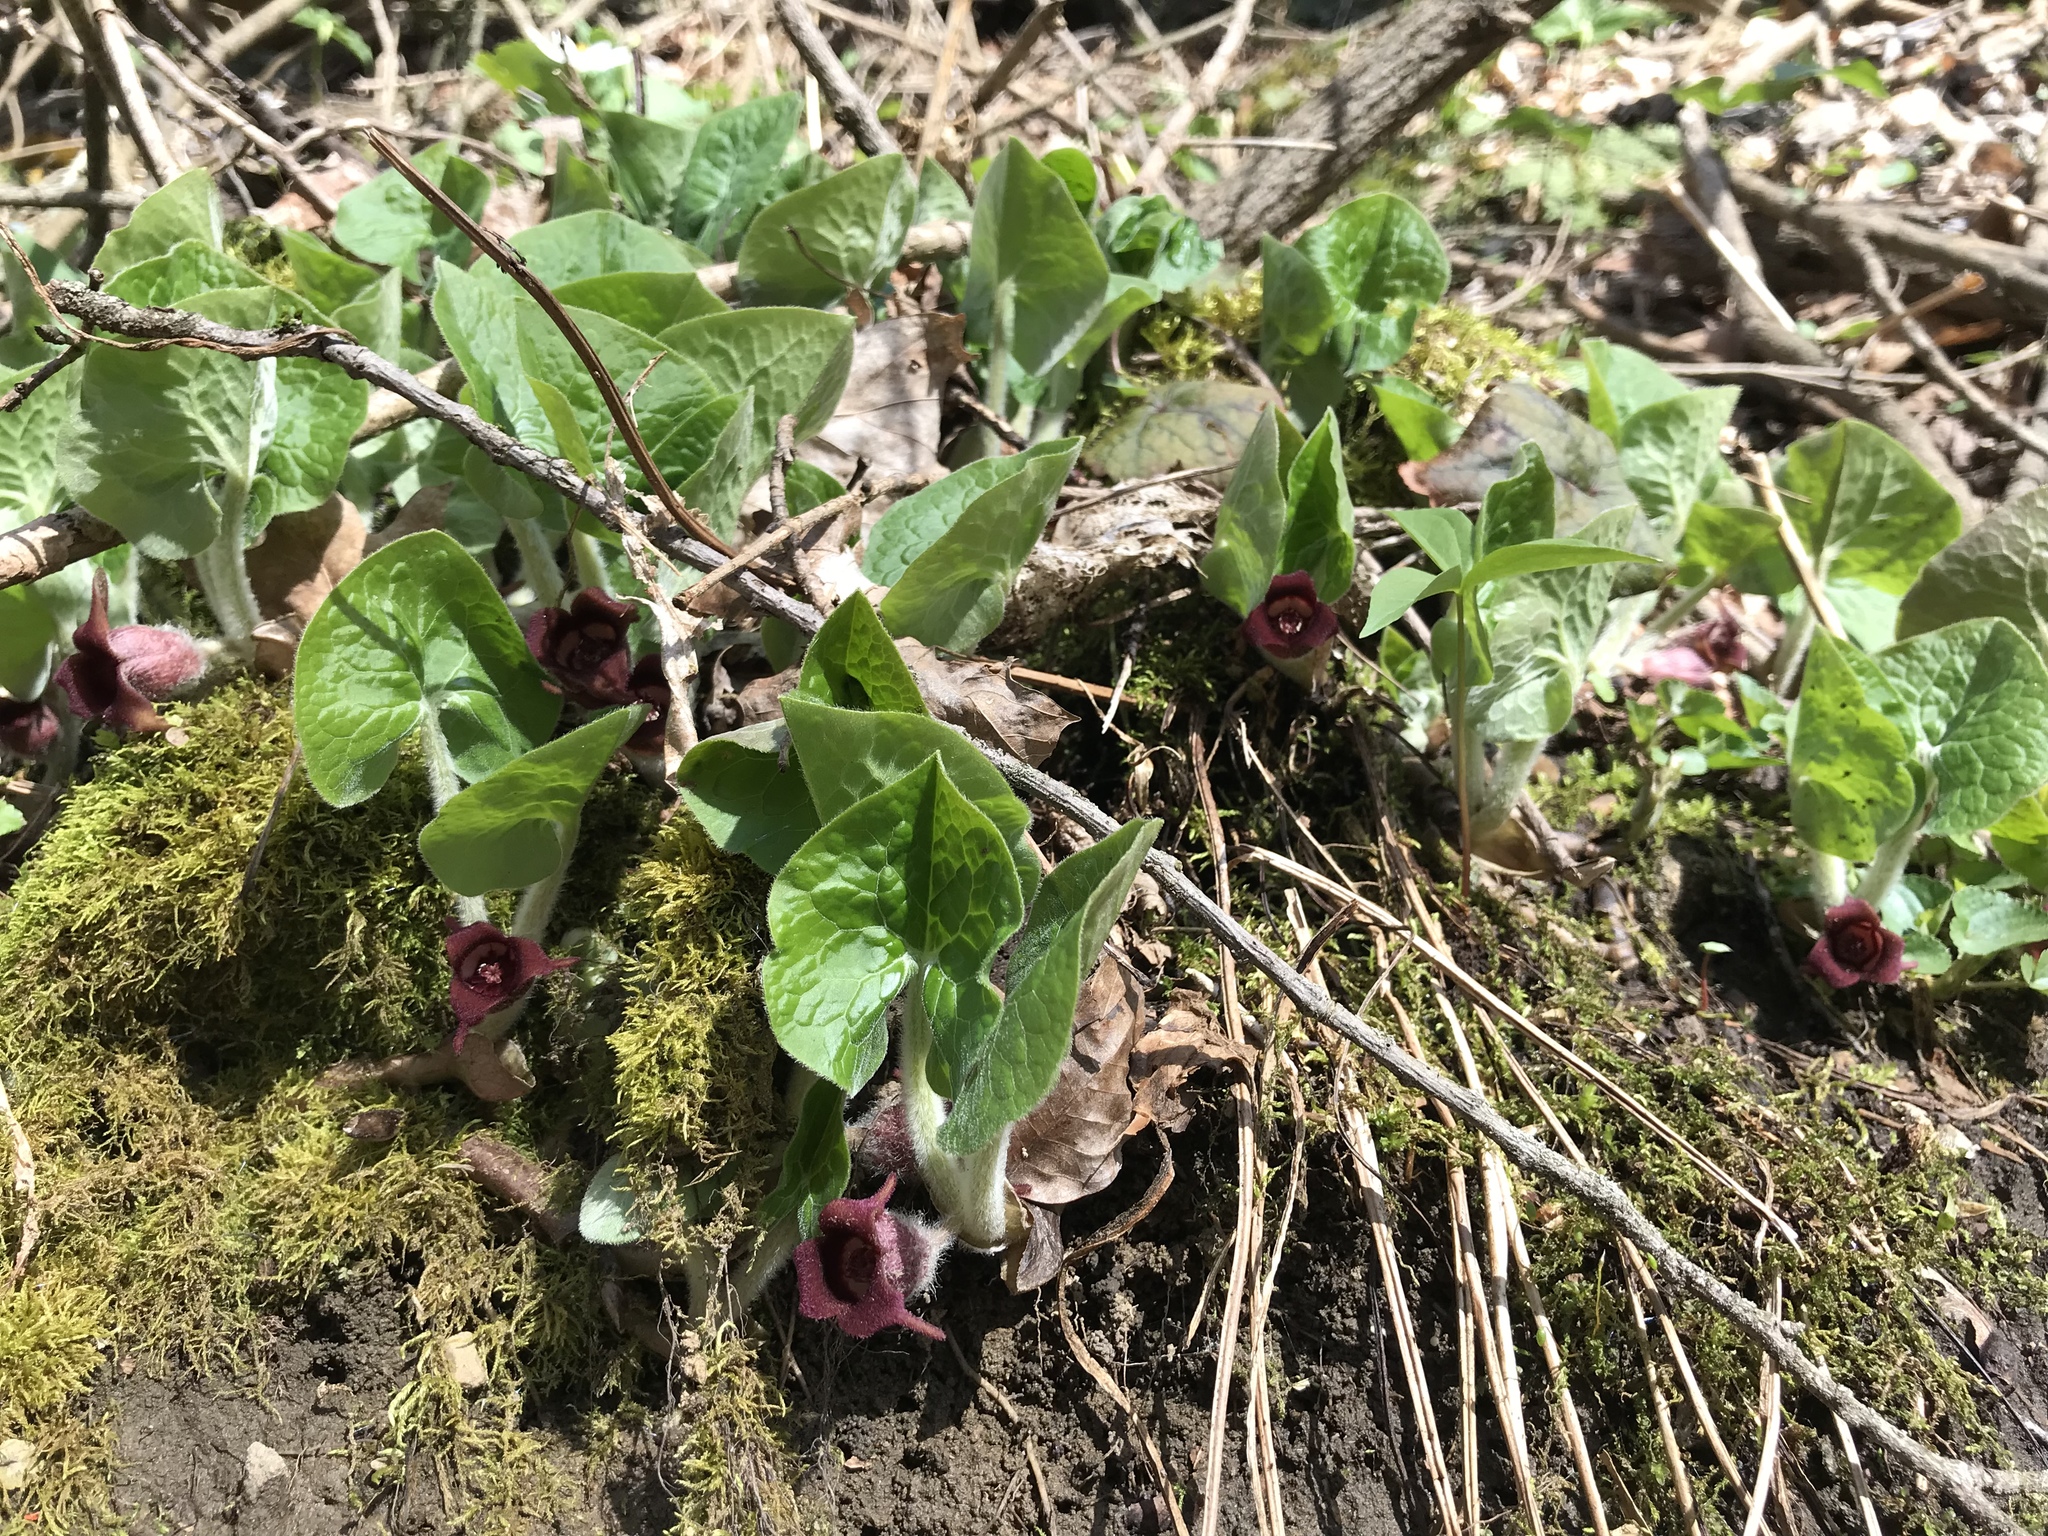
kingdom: Plantae
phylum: Tracheophyta
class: Magnoliopsida
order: Piperales
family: Aristolochiaceae
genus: Asarum
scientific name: Asarum canadense
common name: Wild ginger
